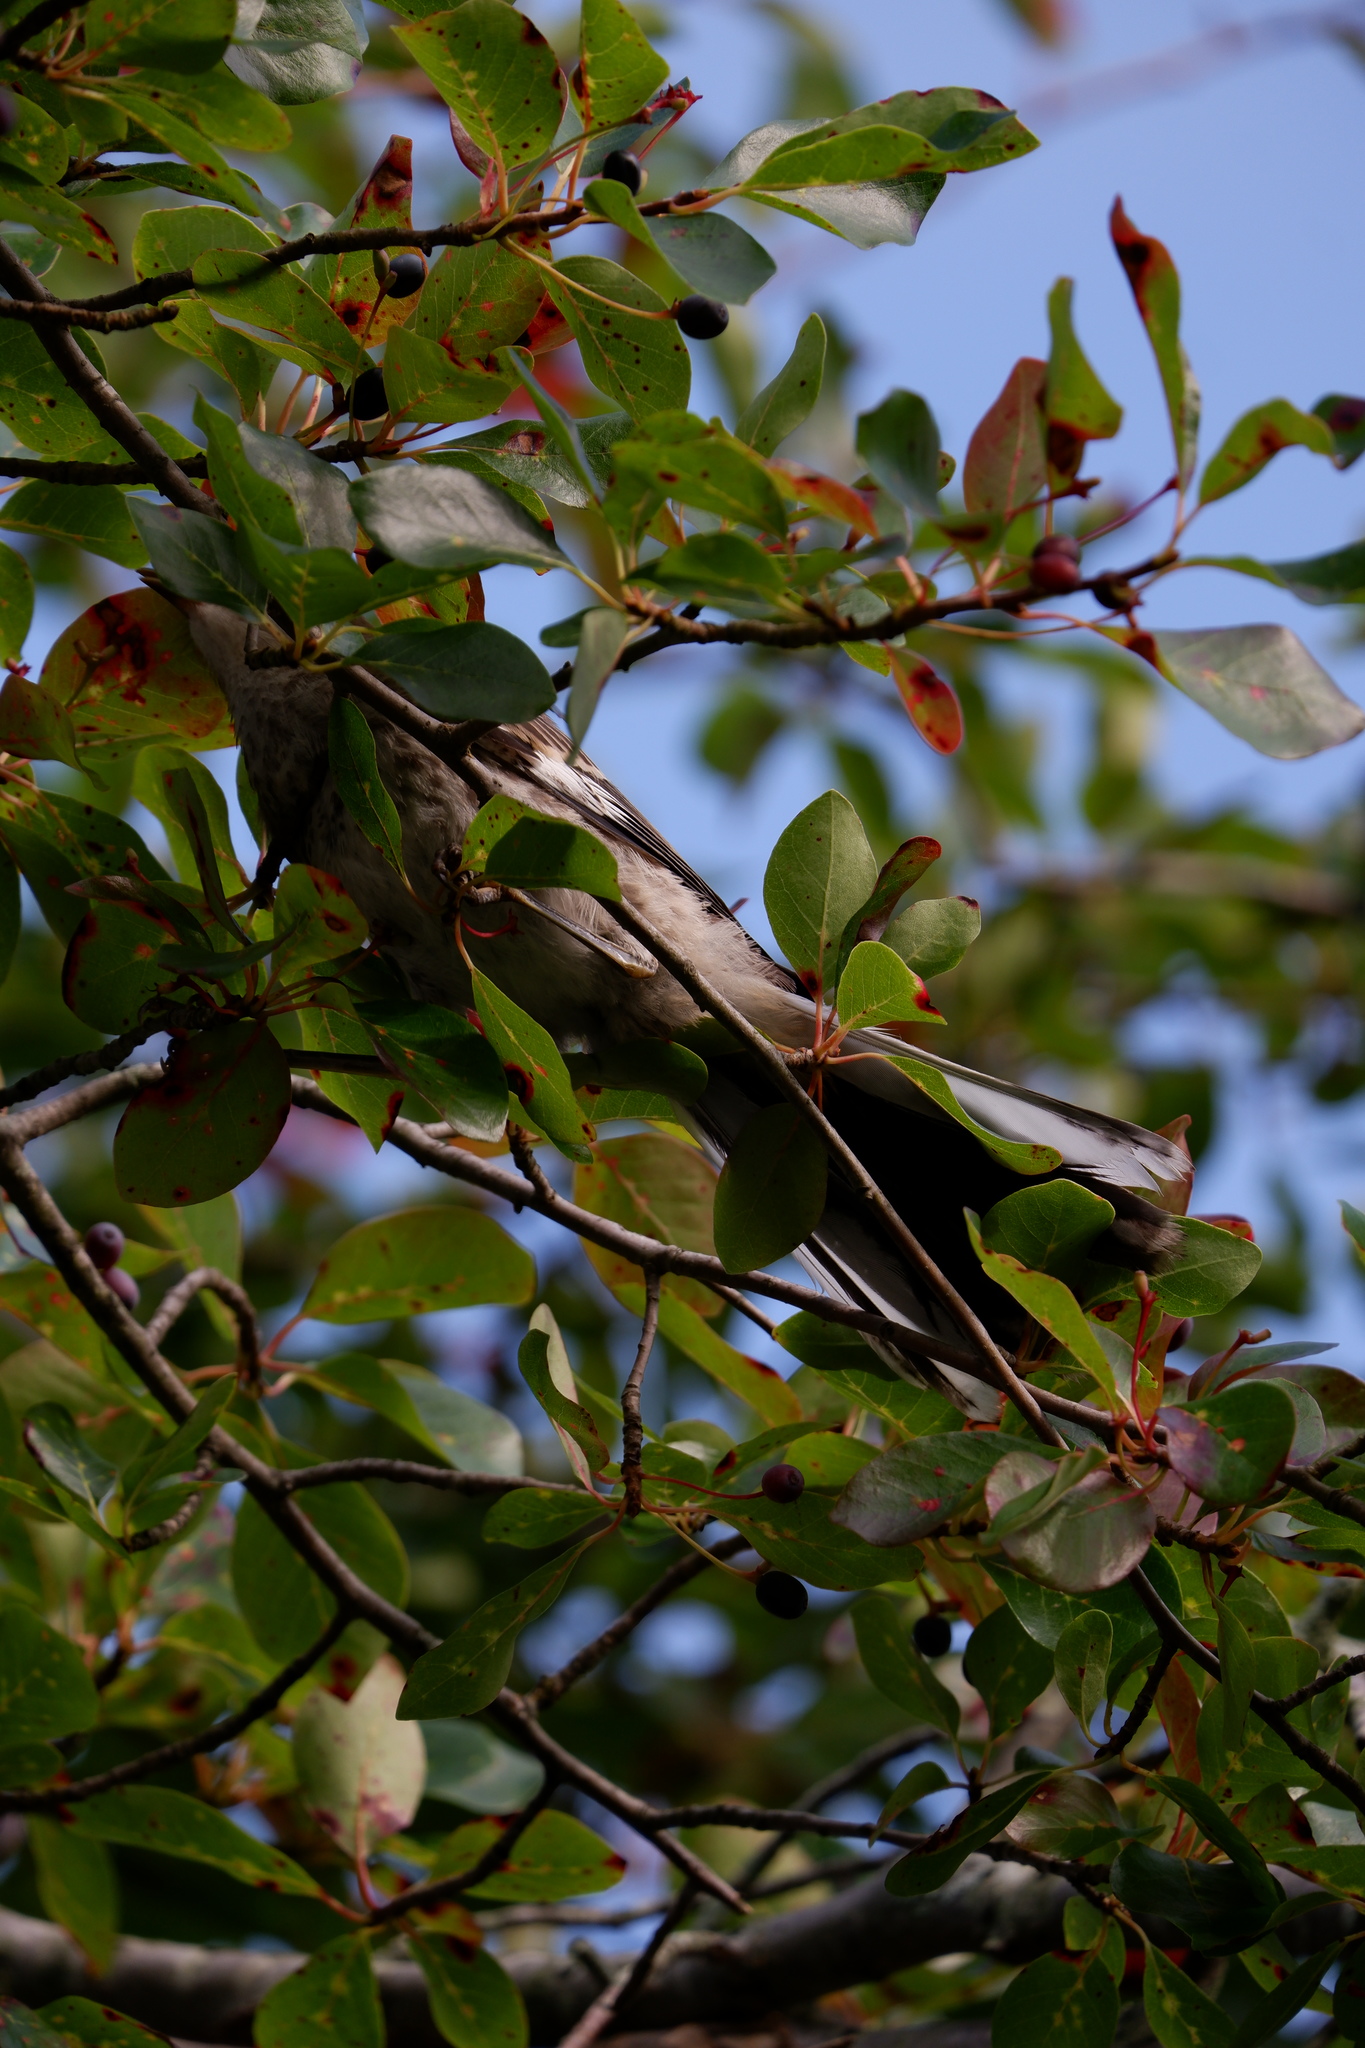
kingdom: Animalia
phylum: Chordata
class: Aves
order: Passeriformes
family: Mimidae
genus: Mimus
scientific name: Mimus polyglottos
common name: Northern mockingbird
